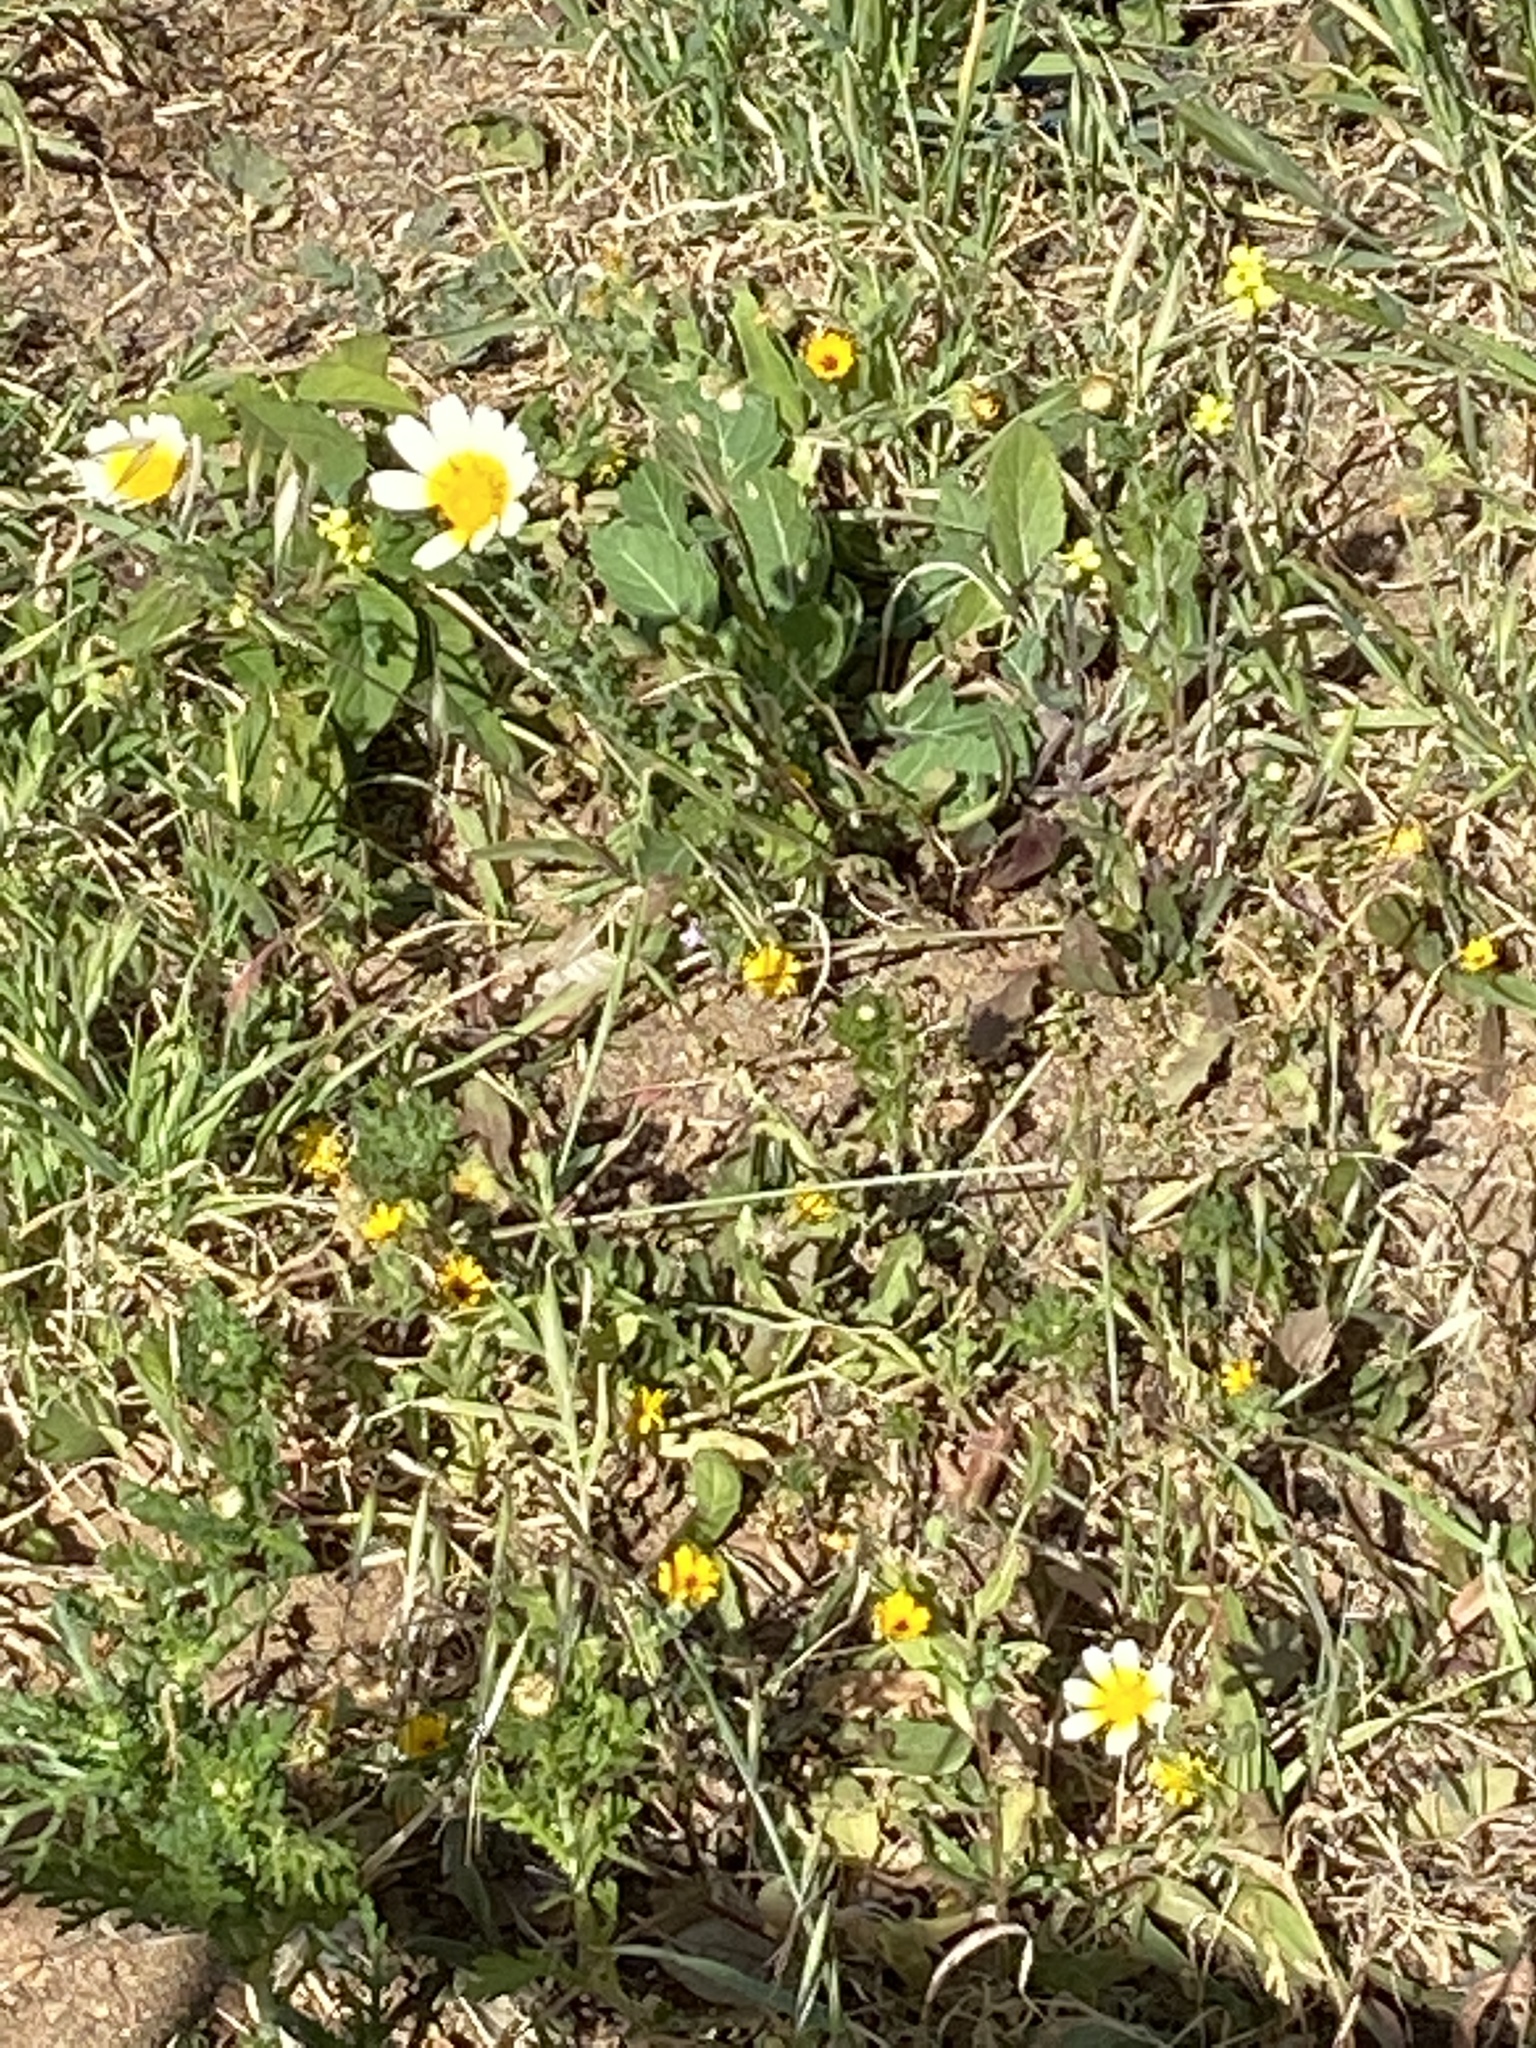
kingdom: Plantae
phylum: Tracheophyta
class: Magnoliopsida
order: Asterales
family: Asteraceae
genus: Glebionis
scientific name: Glebionis coronaria
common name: Crowndaisy
